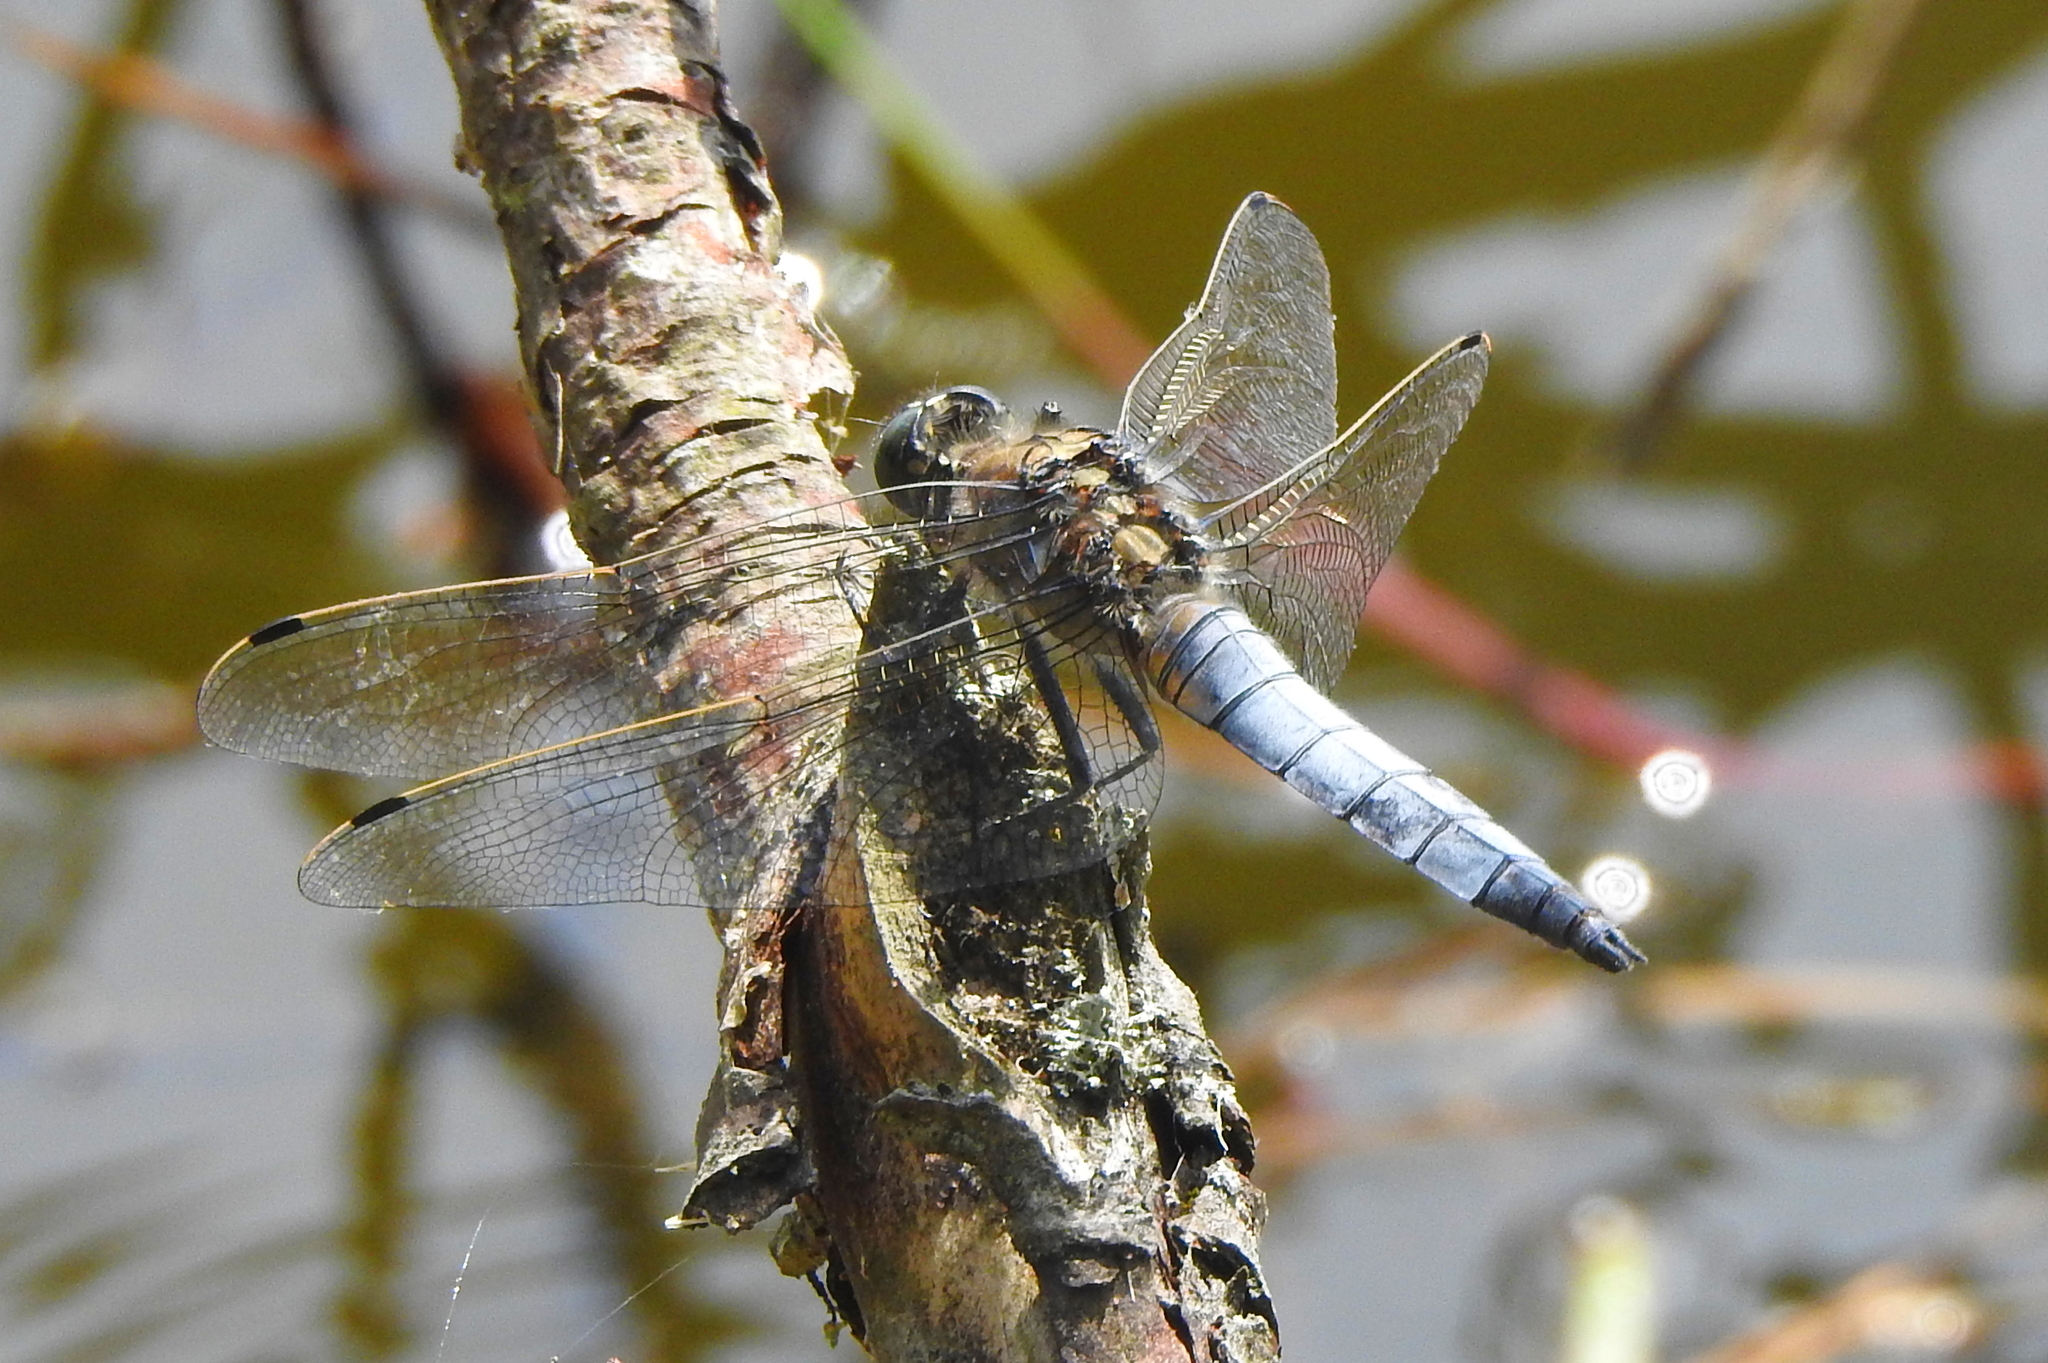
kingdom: Animalia
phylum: Arthropoda
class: Insecta
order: Odonata
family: Libellulidae
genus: Orthetrum
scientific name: Orthetrum cancellatum
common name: Black-tailed skimmer
